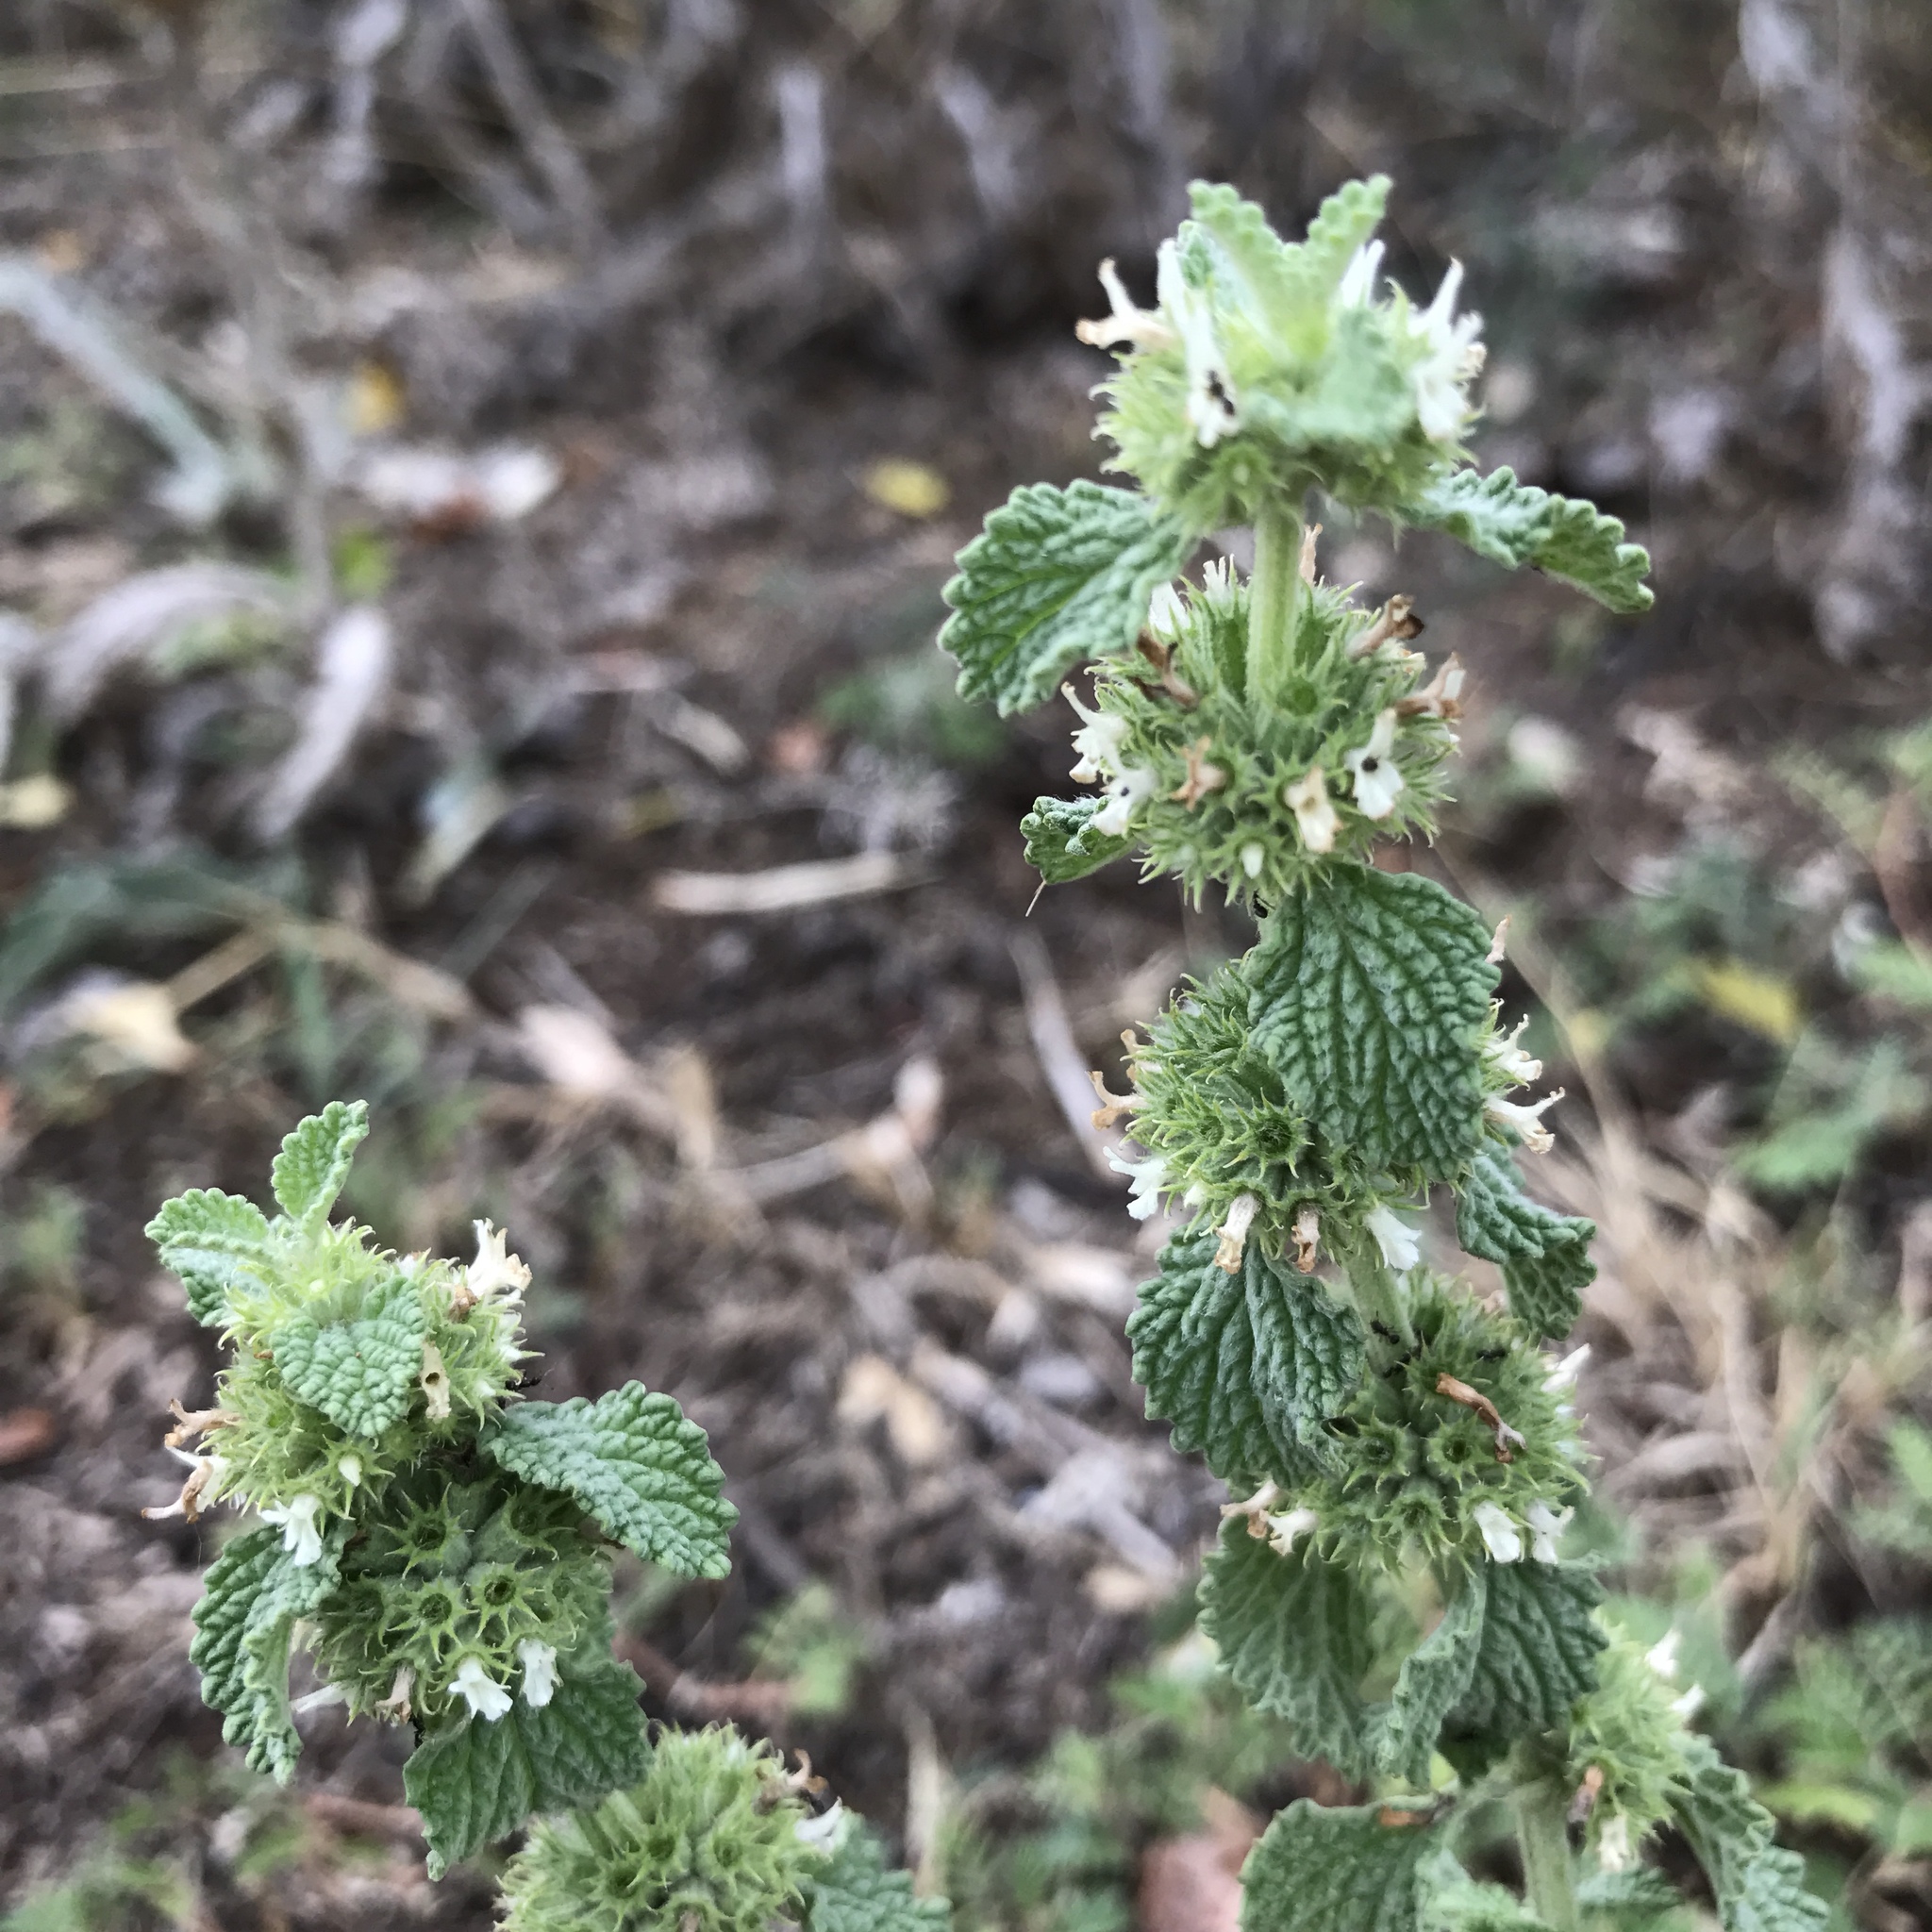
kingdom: Plantae
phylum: Tracheophyta
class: Magnoliopsida
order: Lamiales
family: Lamiaceae
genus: Marrubium
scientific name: Marrubium vulgare
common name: Horehound
